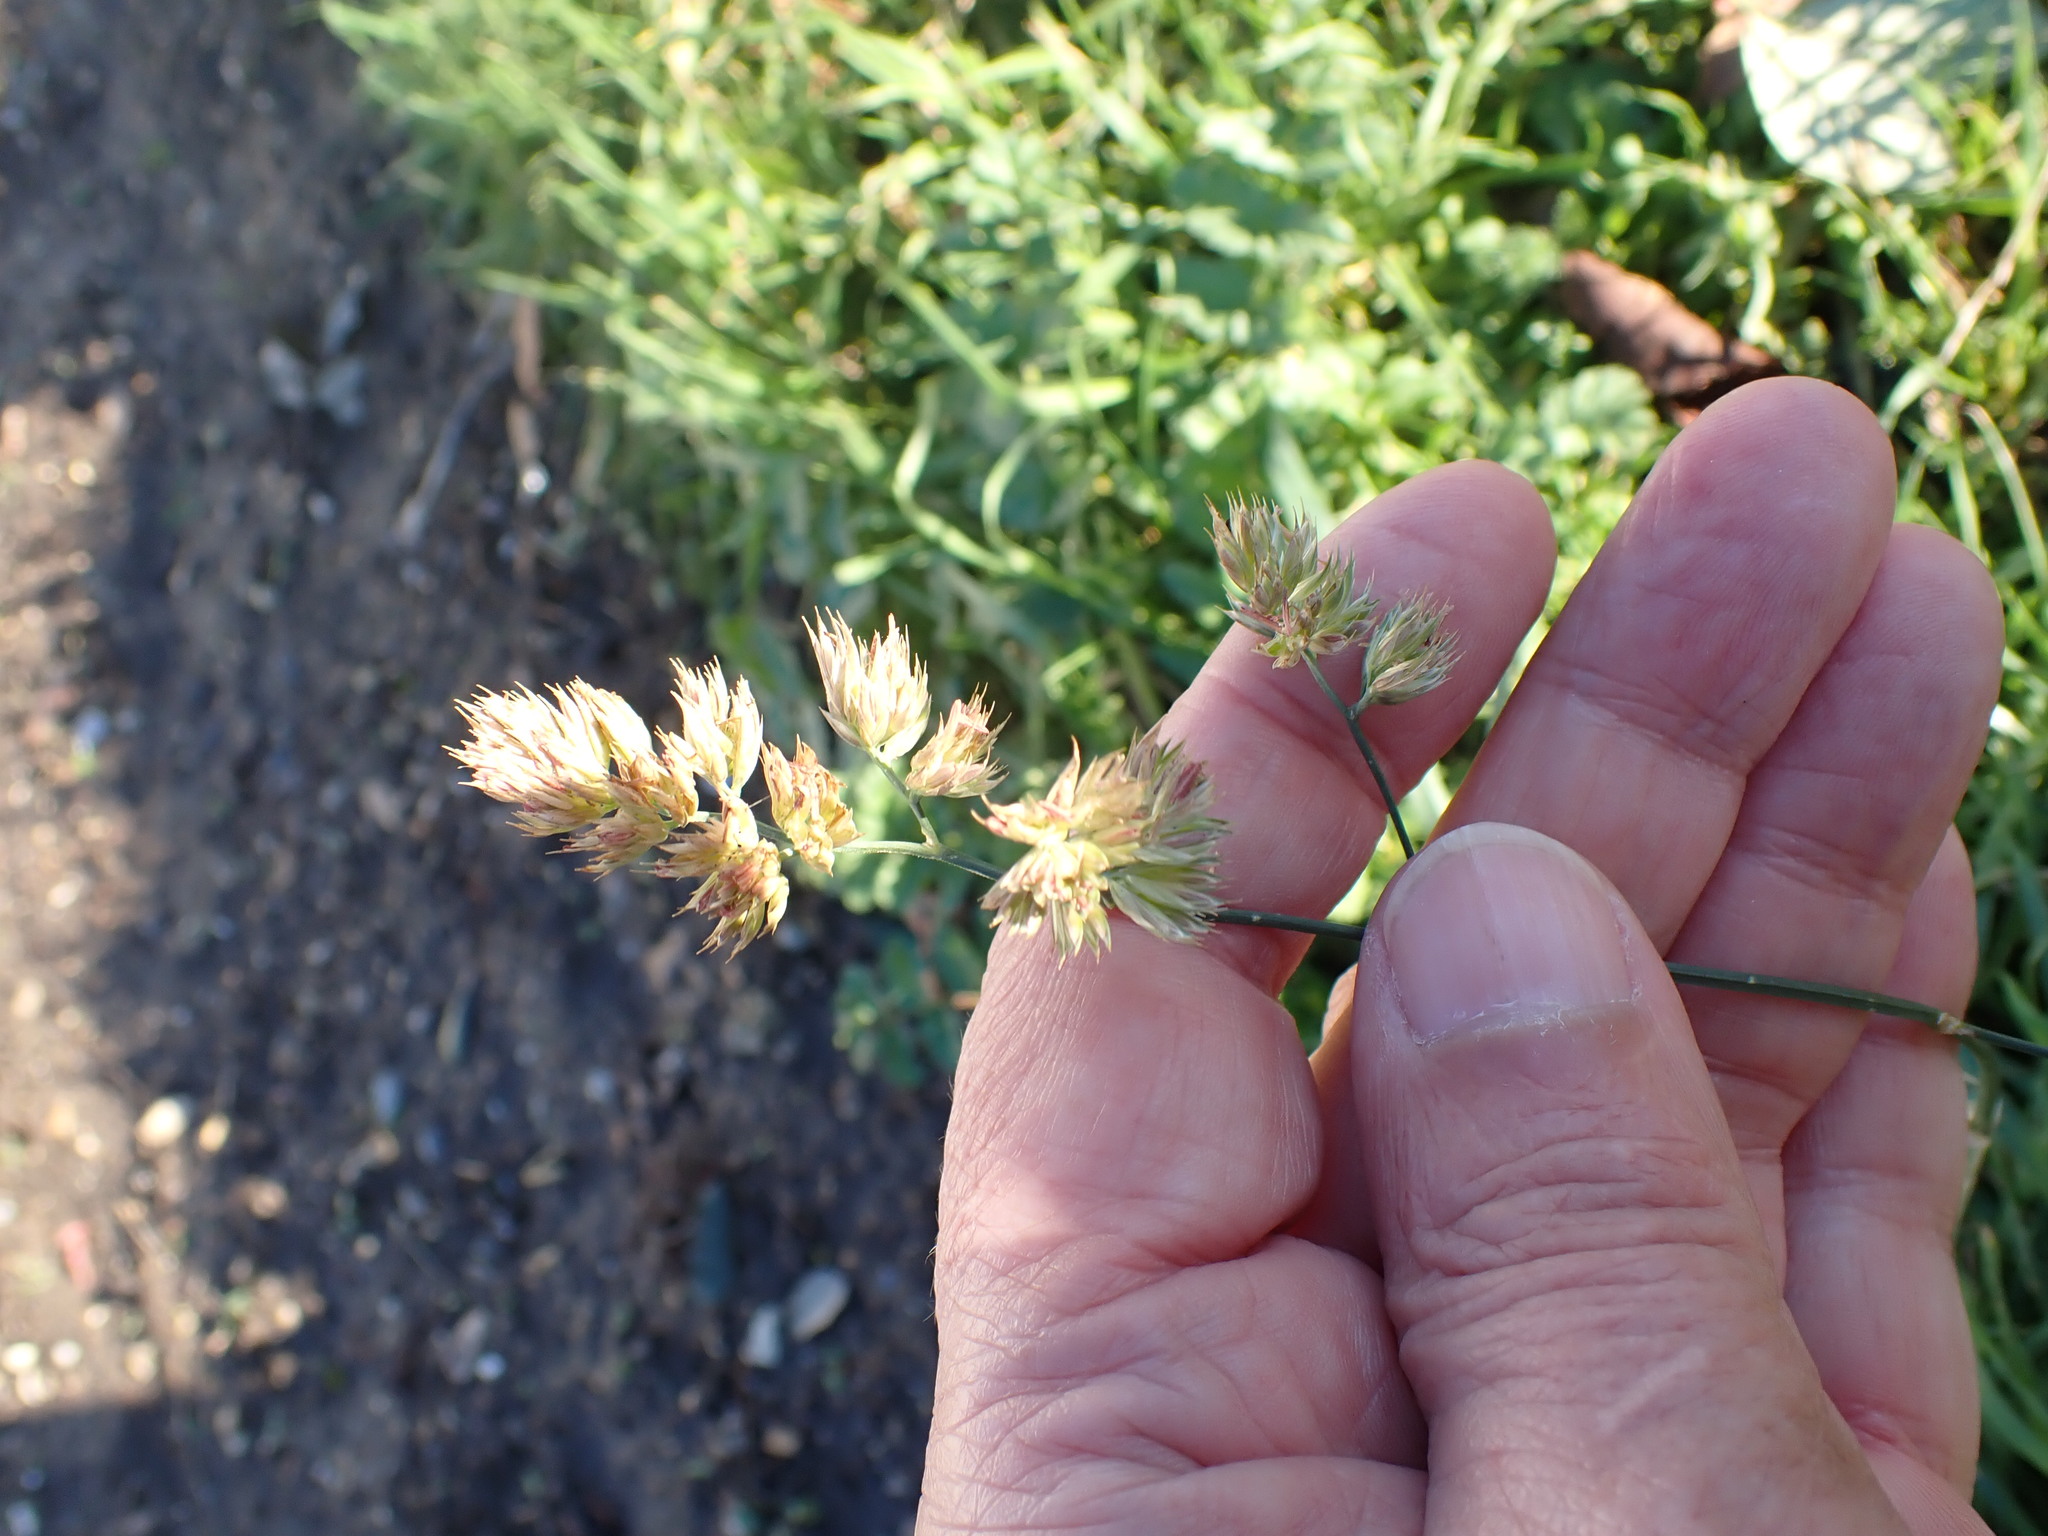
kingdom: Plantae
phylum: Tracheophyta
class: Liliopsida
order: Poales
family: Poaceae
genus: Dactylis
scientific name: Dactylis glomerata
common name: Orchardgrass
